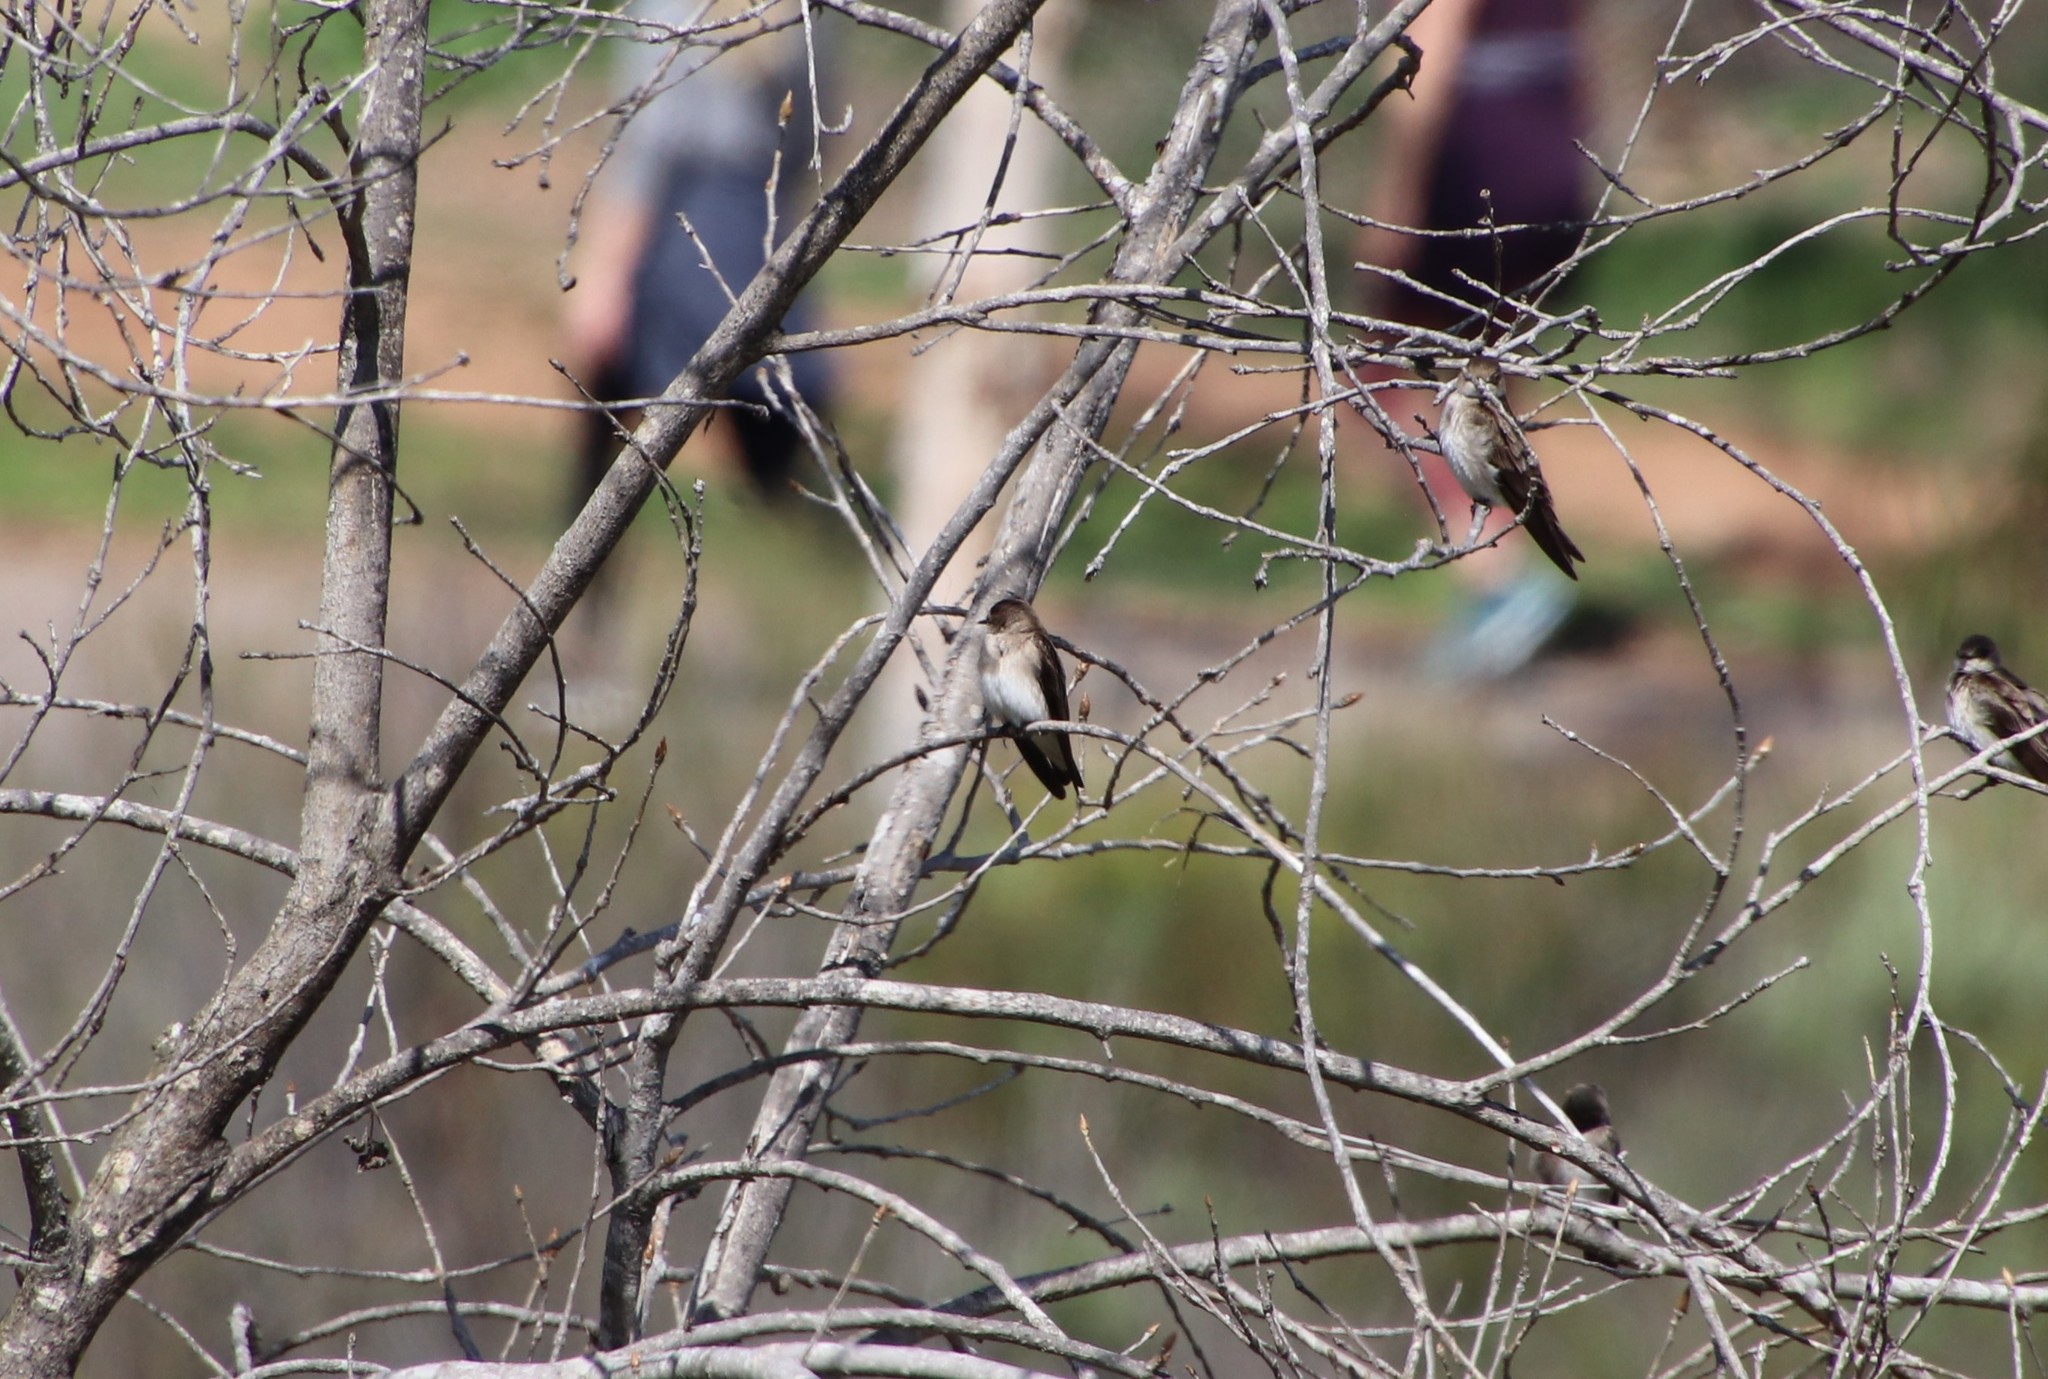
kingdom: Animalia
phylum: Chordata
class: Aves
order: Passeriformes
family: Hirundinidae
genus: Stelgidopteryx
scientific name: Stelgidopteryx serripennis
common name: Northern rough-winged swallow
